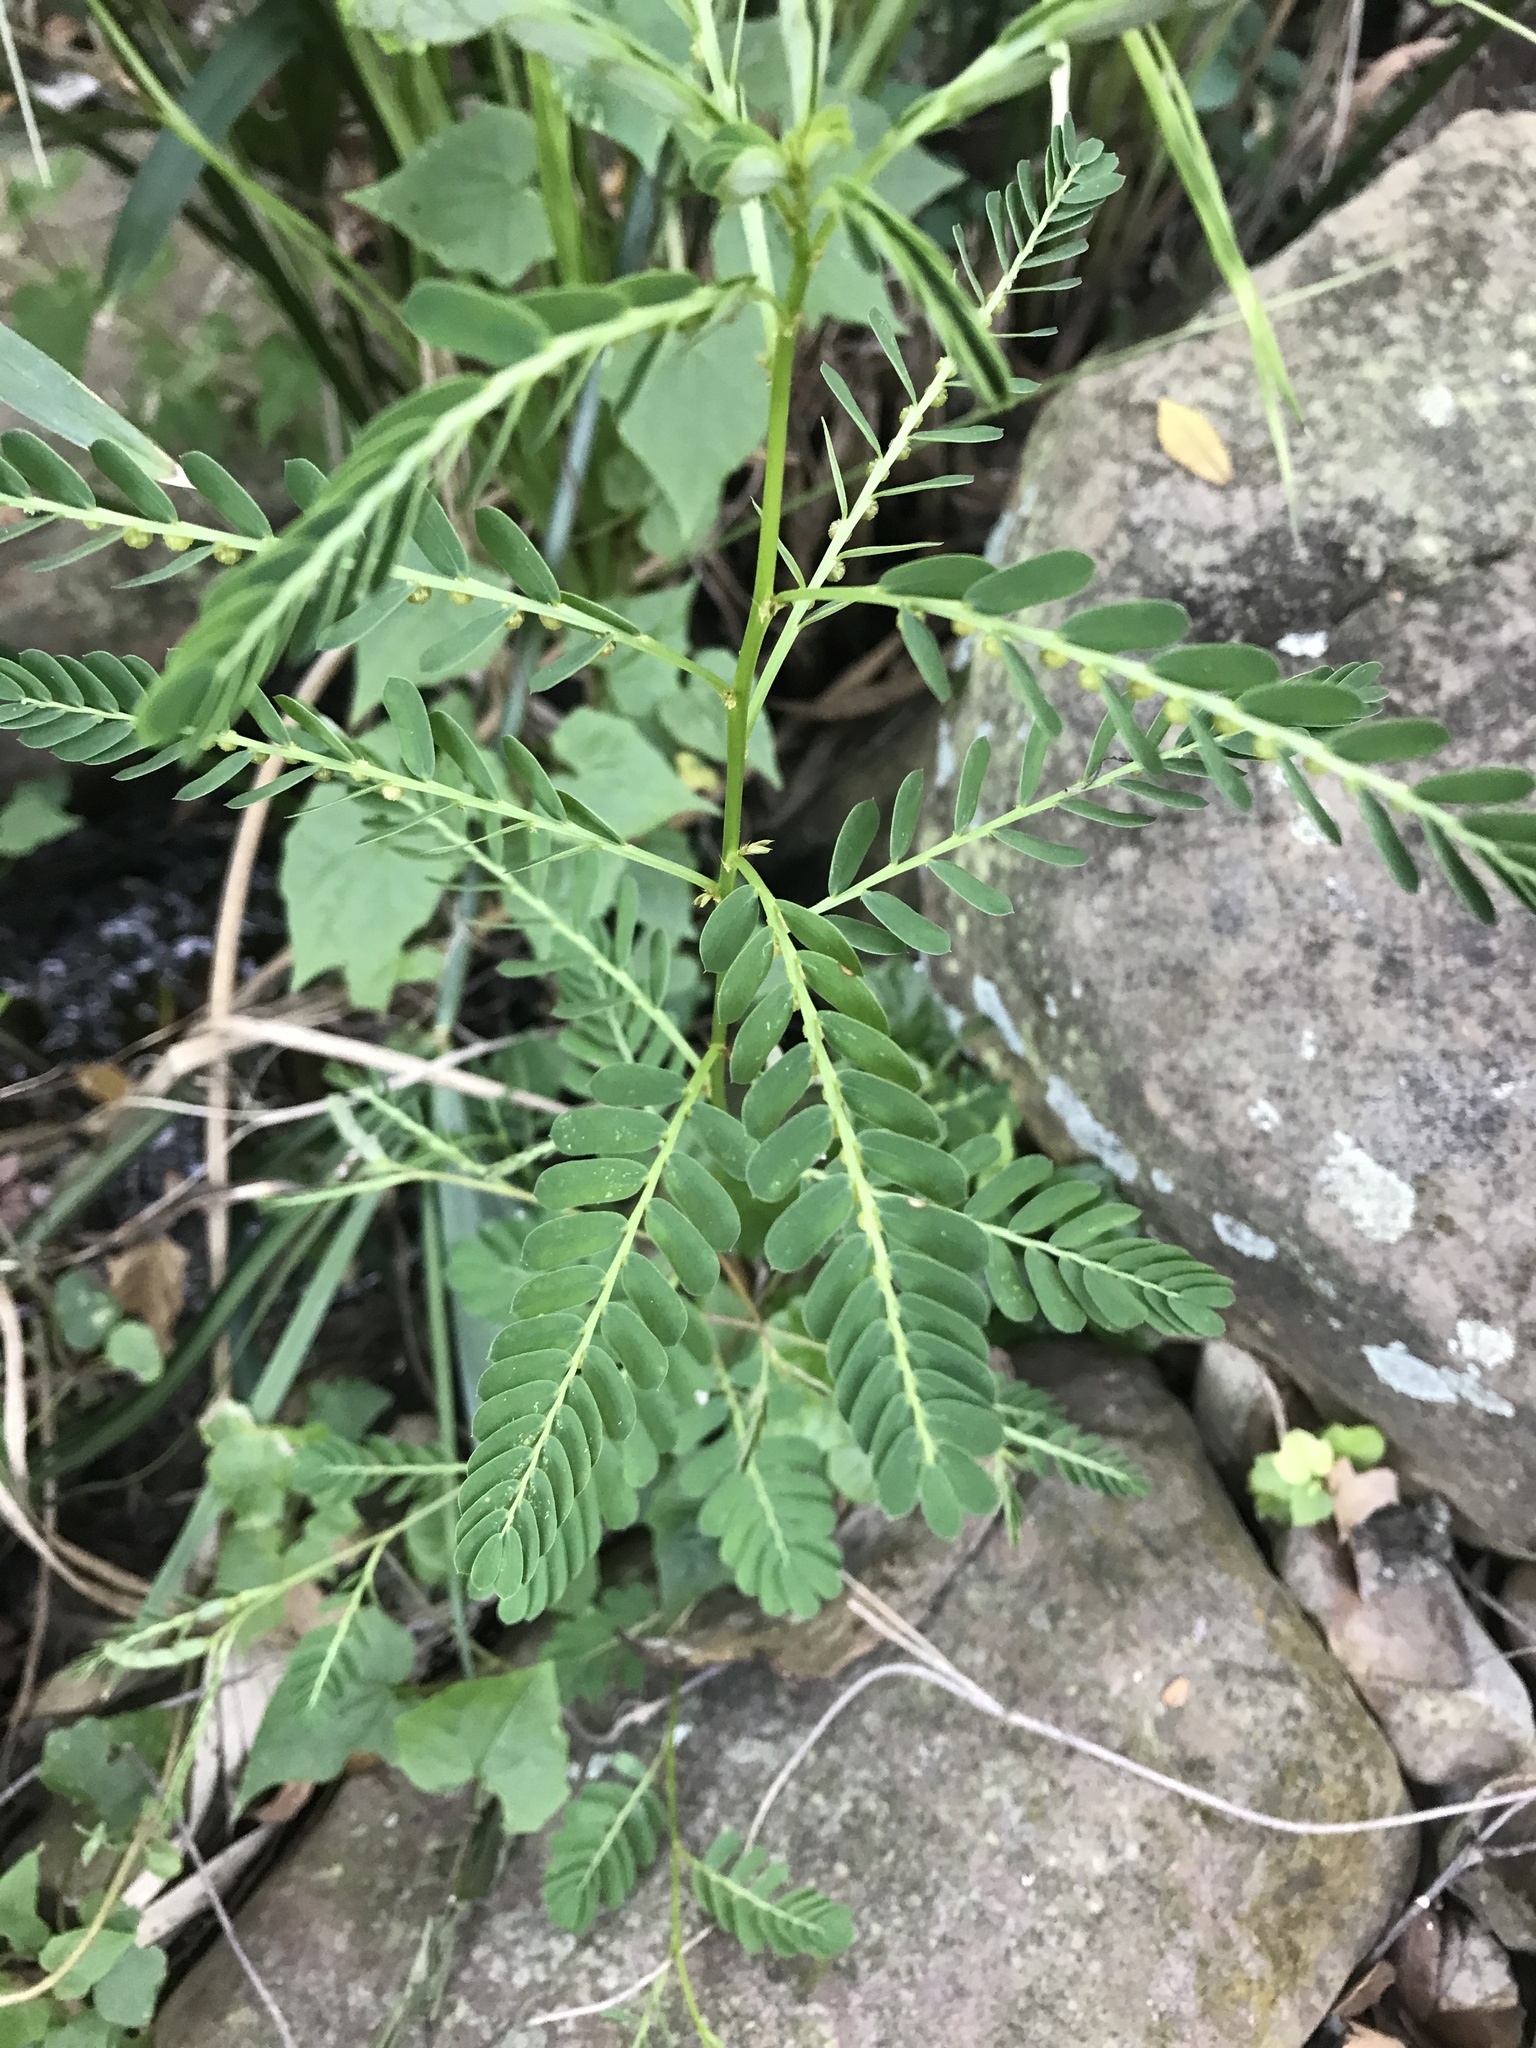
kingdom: Plantae
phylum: Tracheophyta
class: Magnoliopsida
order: Malpighiales
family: Phyllanthaceae
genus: Phyllanthus
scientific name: Phyllanthus urinaria
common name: Chamber bitter
